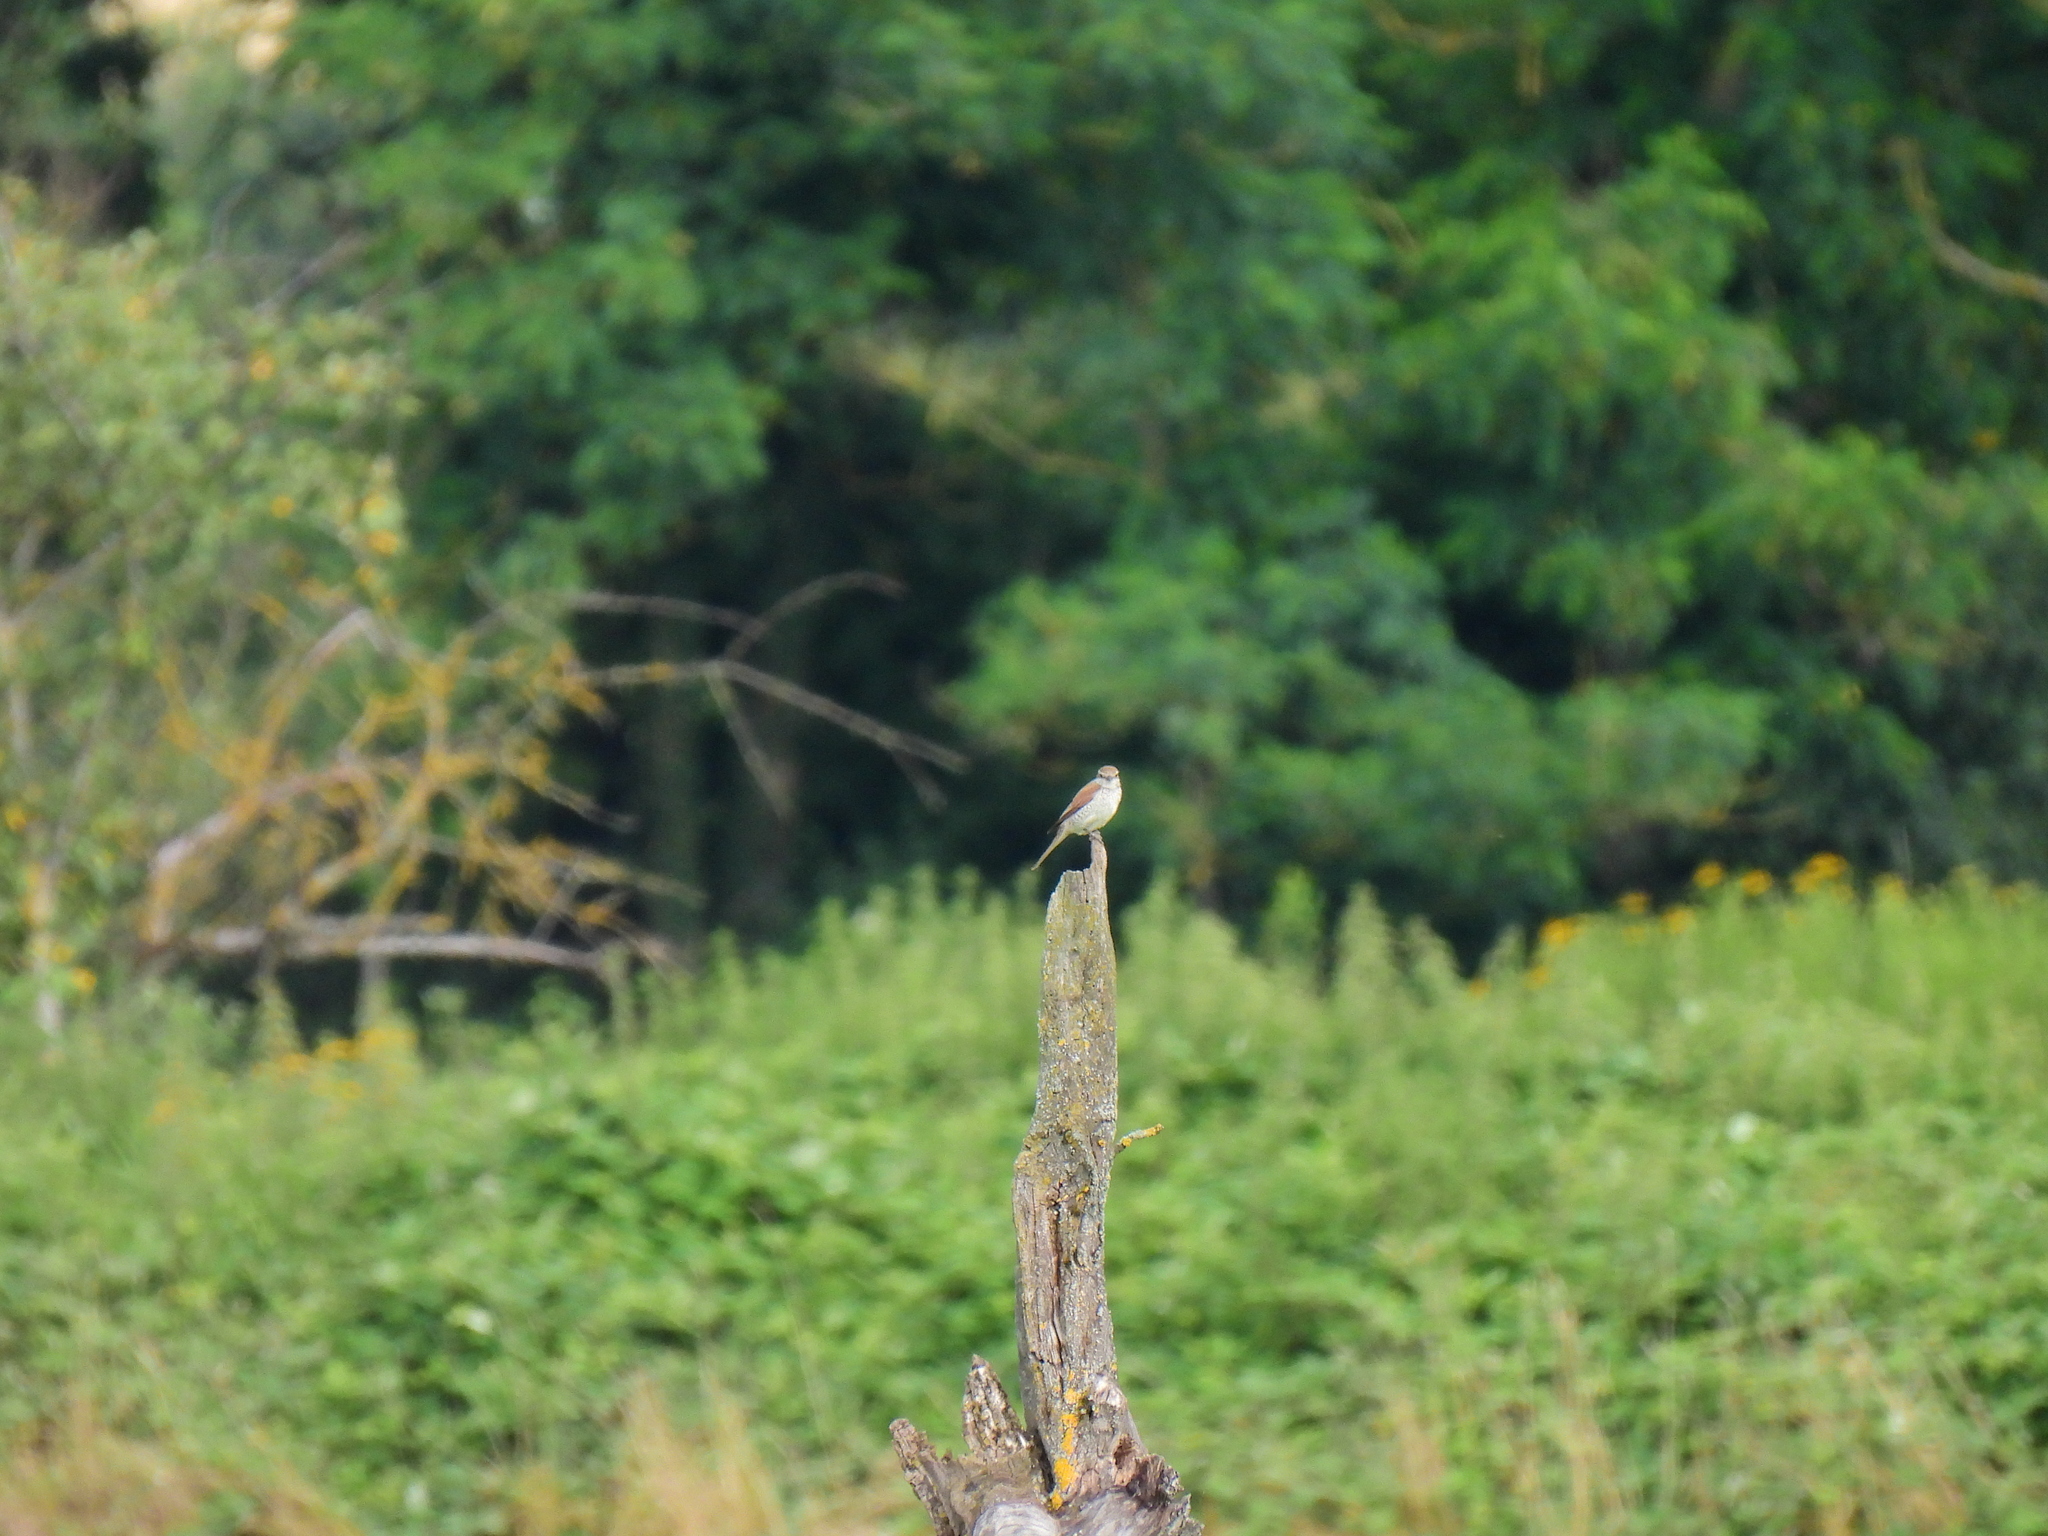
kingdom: Animalia
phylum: Chordata
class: Aves
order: Passeriformes
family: Laniidae
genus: Lanius
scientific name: Lanius collurio
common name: Red-backed shrike
